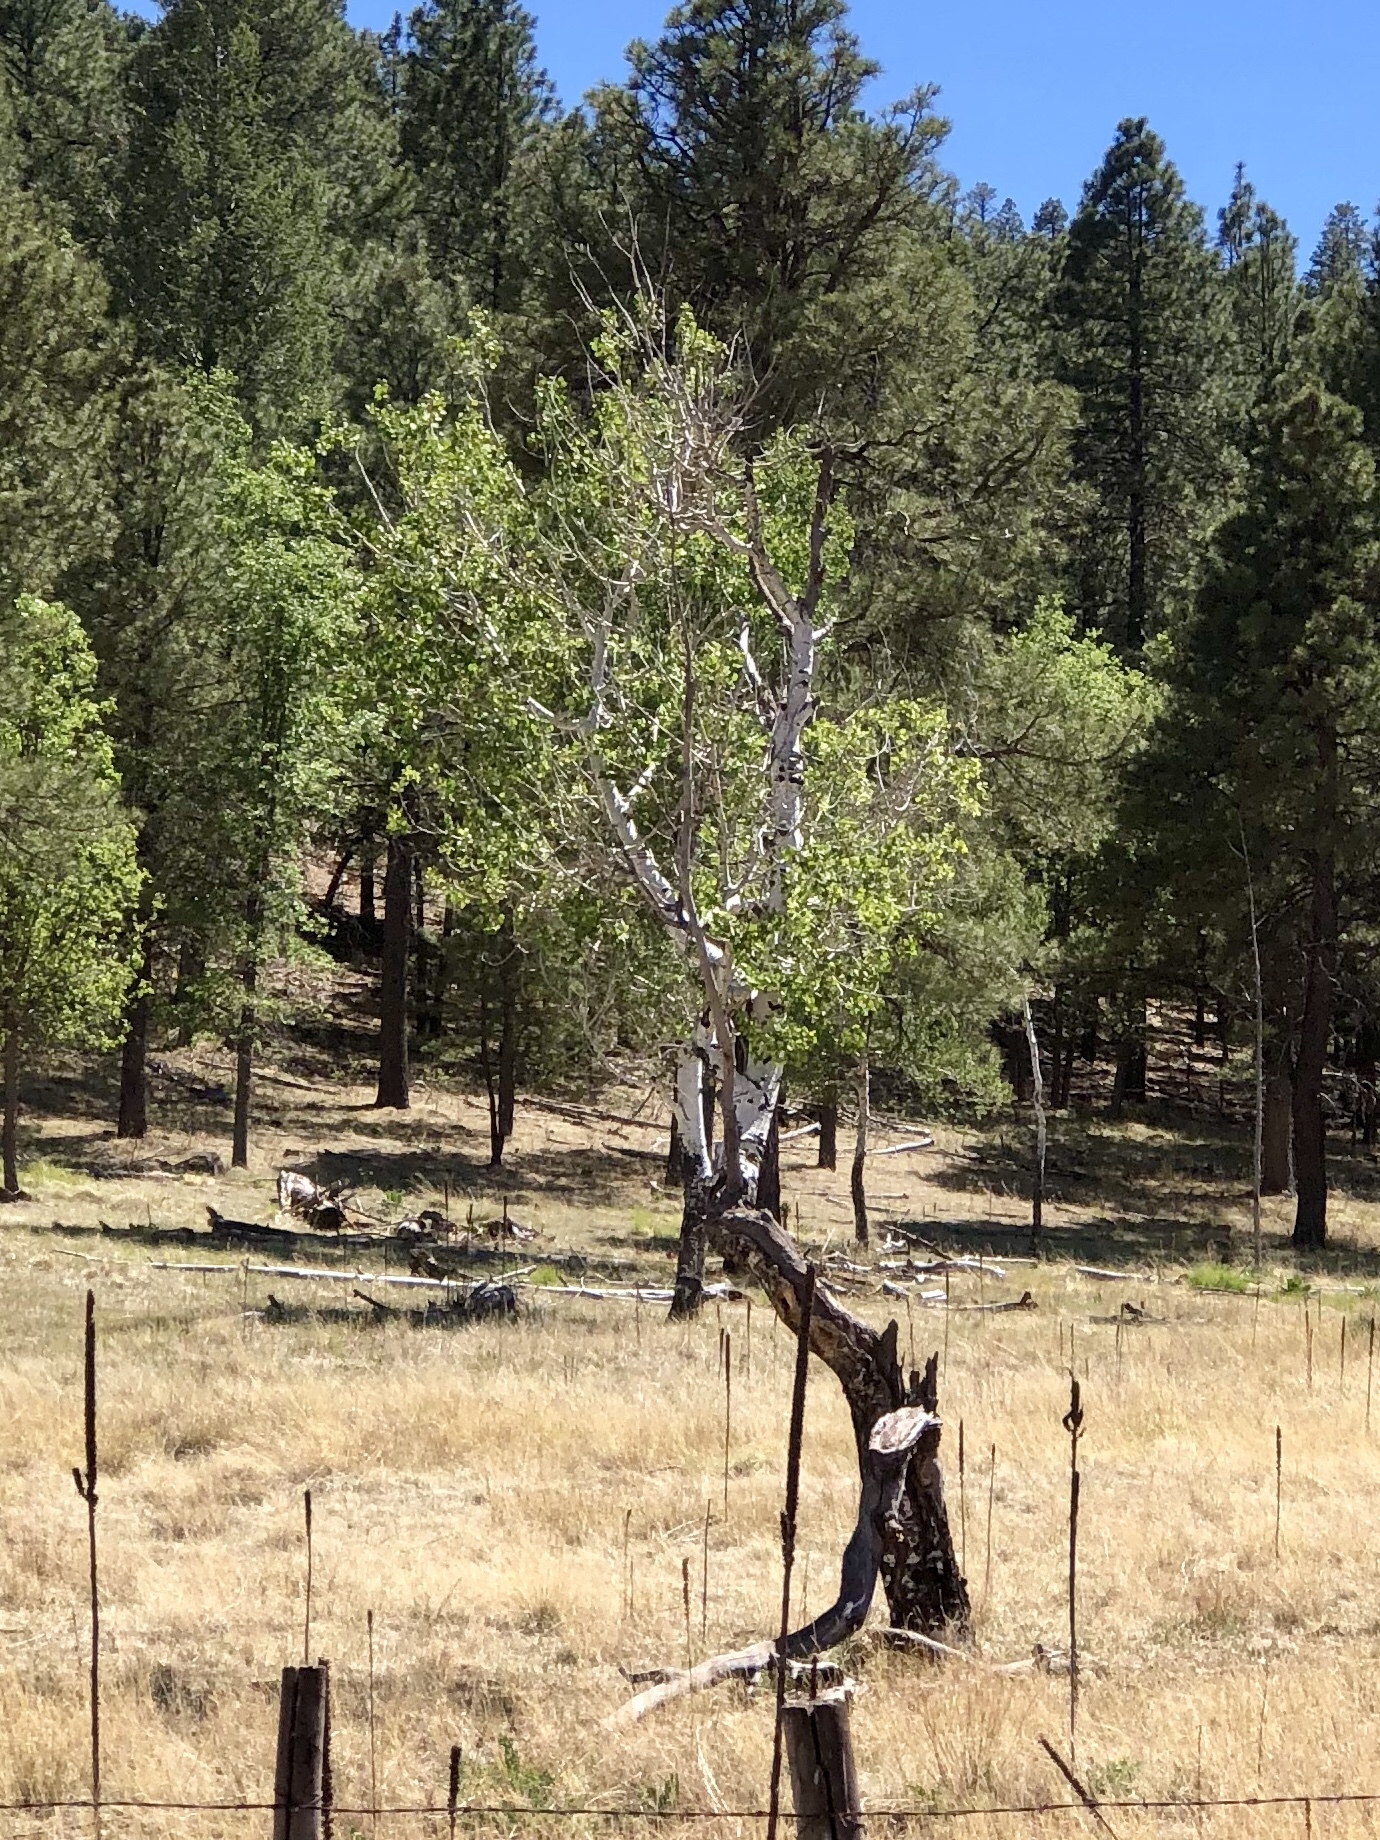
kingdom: Plantae
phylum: Tracheophyta
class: Magnoliopsida
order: Malpighiales
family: Salicaceae
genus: Populus
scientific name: Populus tremuloides
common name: Quaking aspen
